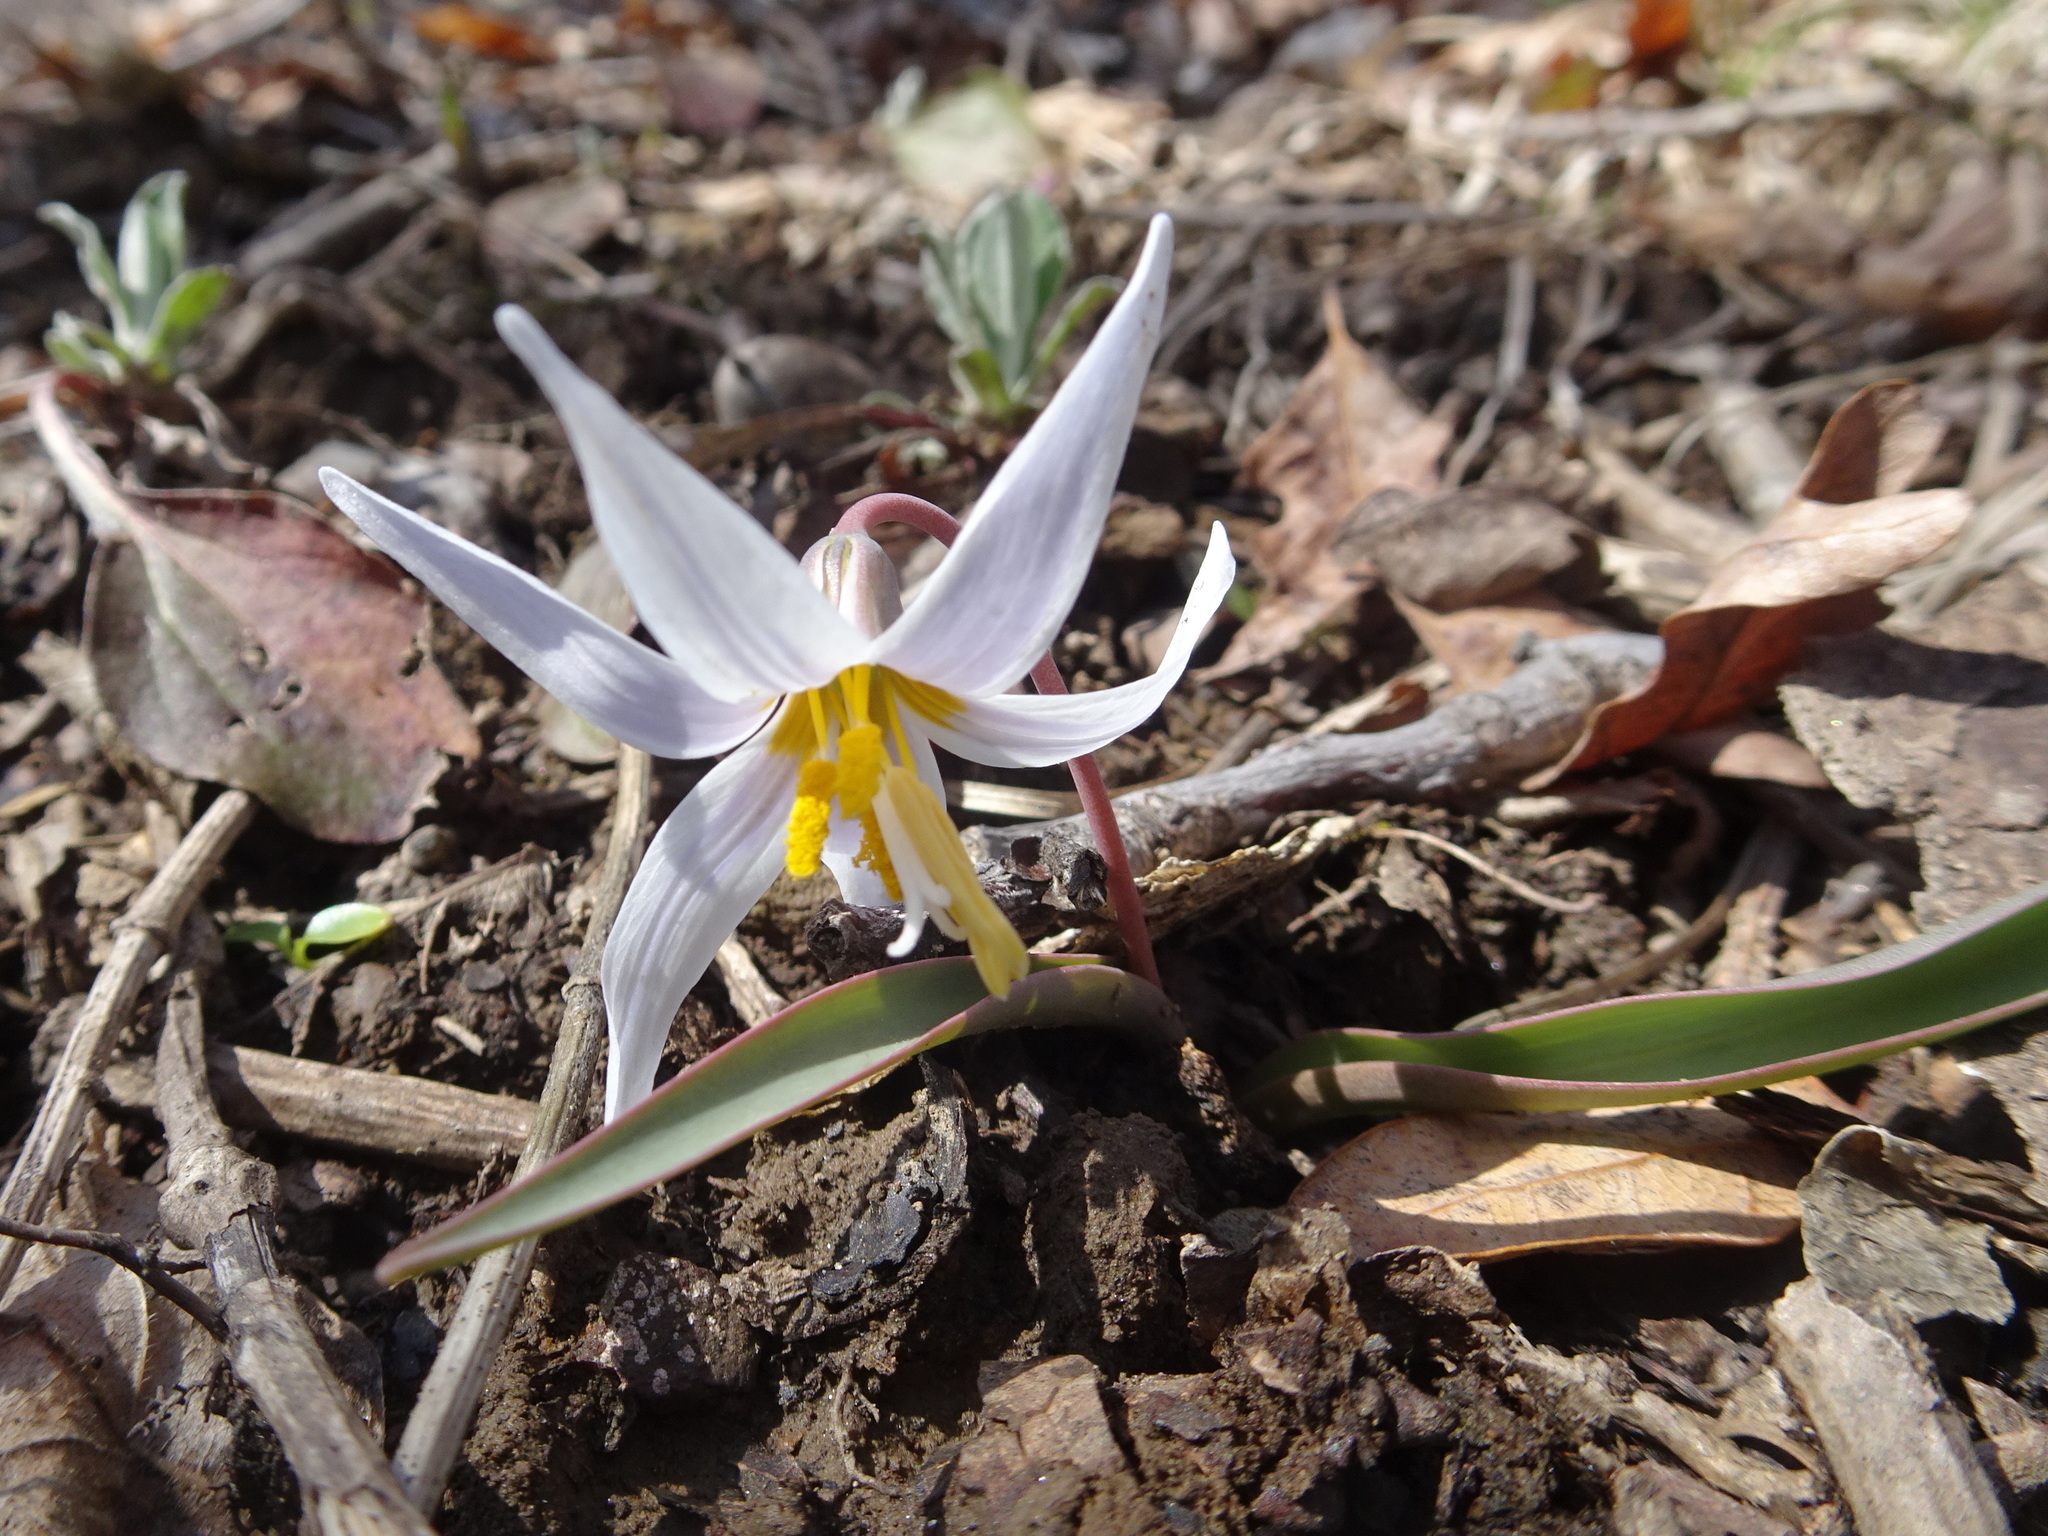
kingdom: Plantae
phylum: Tracheophyta
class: Liliopsida
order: Liliales
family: Liliaceae
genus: Erythronium
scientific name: Erythronium mesochoreum
